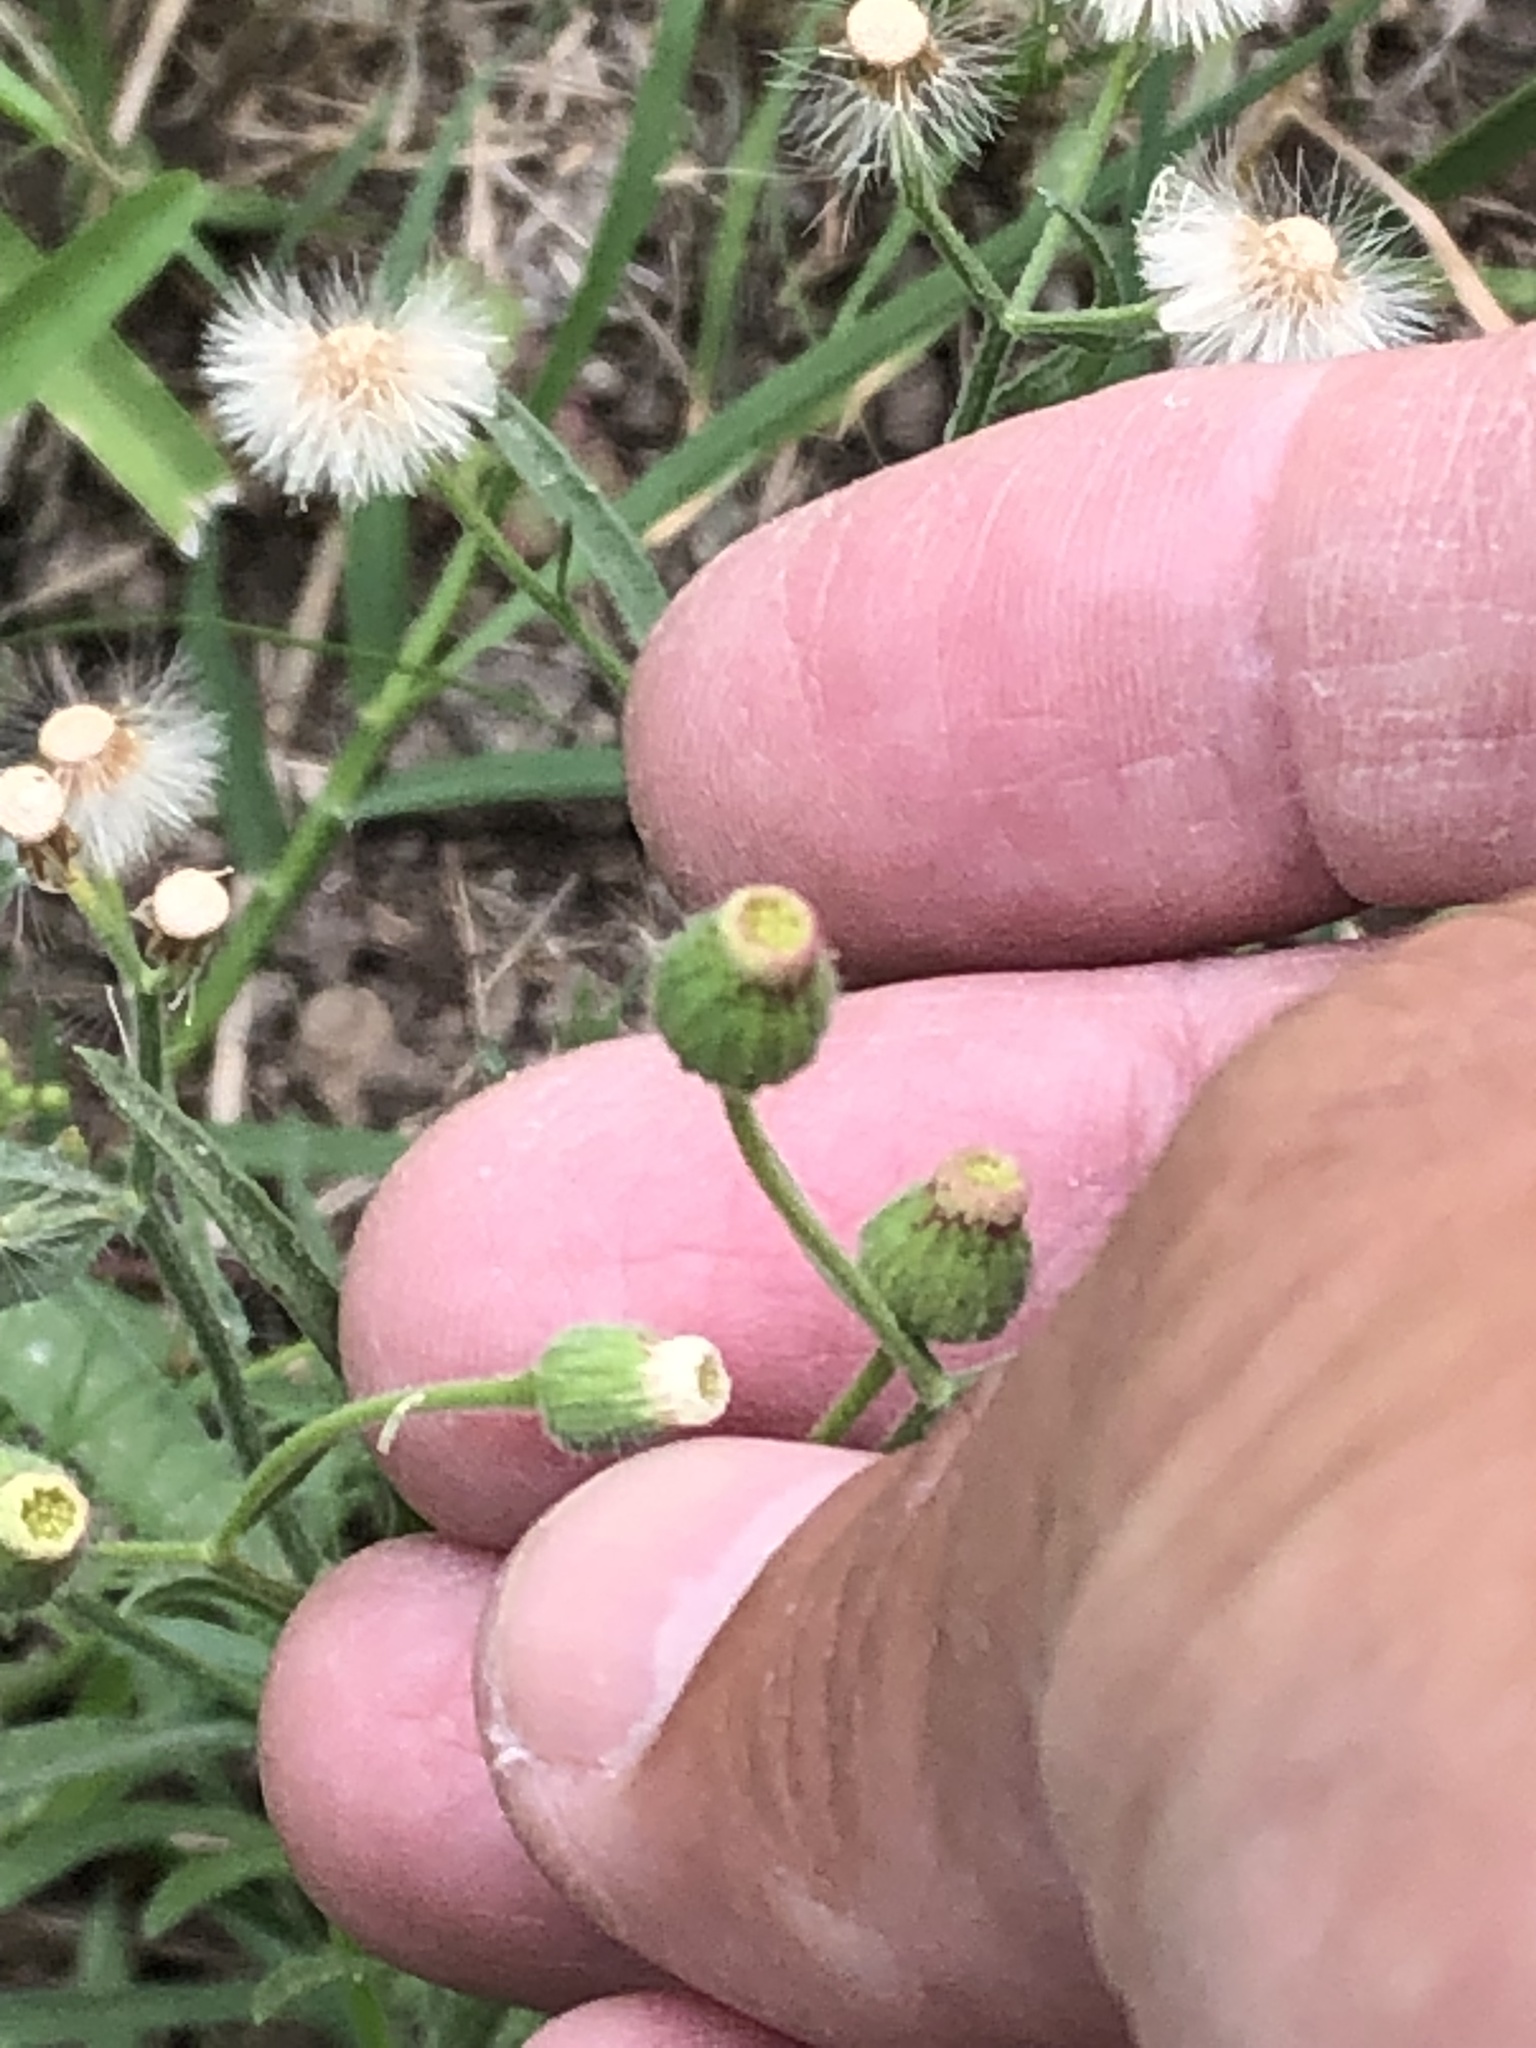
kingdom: Plantae
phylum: Tracheophyta
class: Magnoliopsida
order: Asterales
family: Asteraceae
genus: Erigeron
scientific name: Erigeron bonariensis
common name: Argentine fleabane
